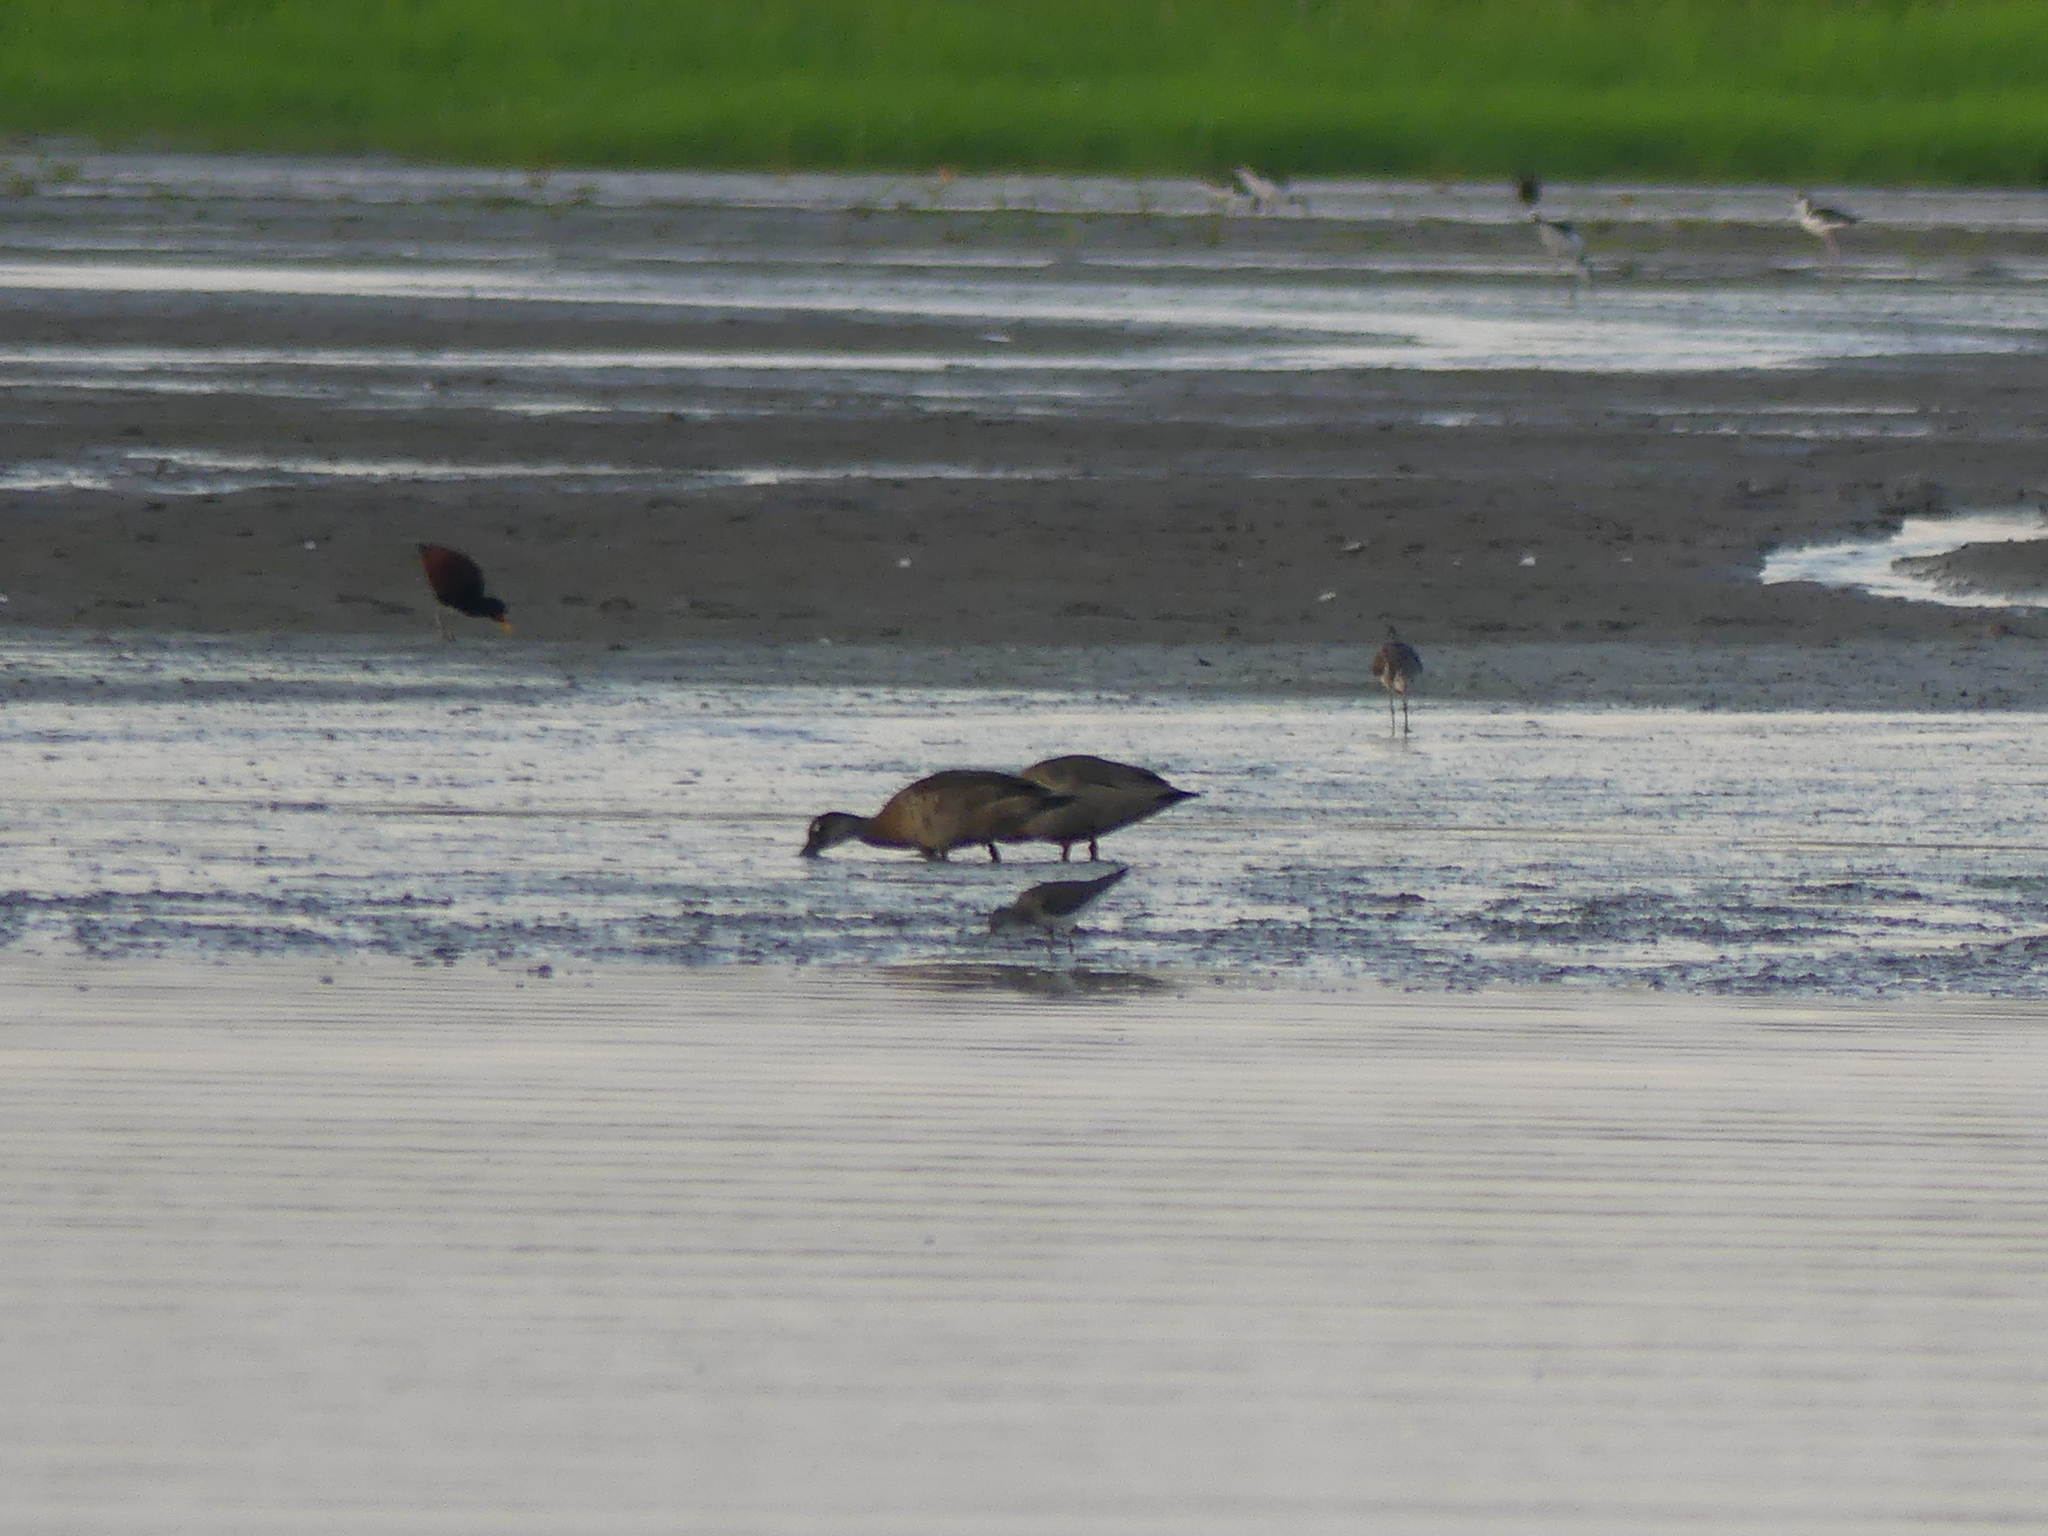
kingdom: Animalia
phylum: Chordata
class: Aves
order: Anseriformes
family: Anatidae
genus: Amazonetta
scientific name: Amazonetta brasiliensis
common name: Brazilian teal
